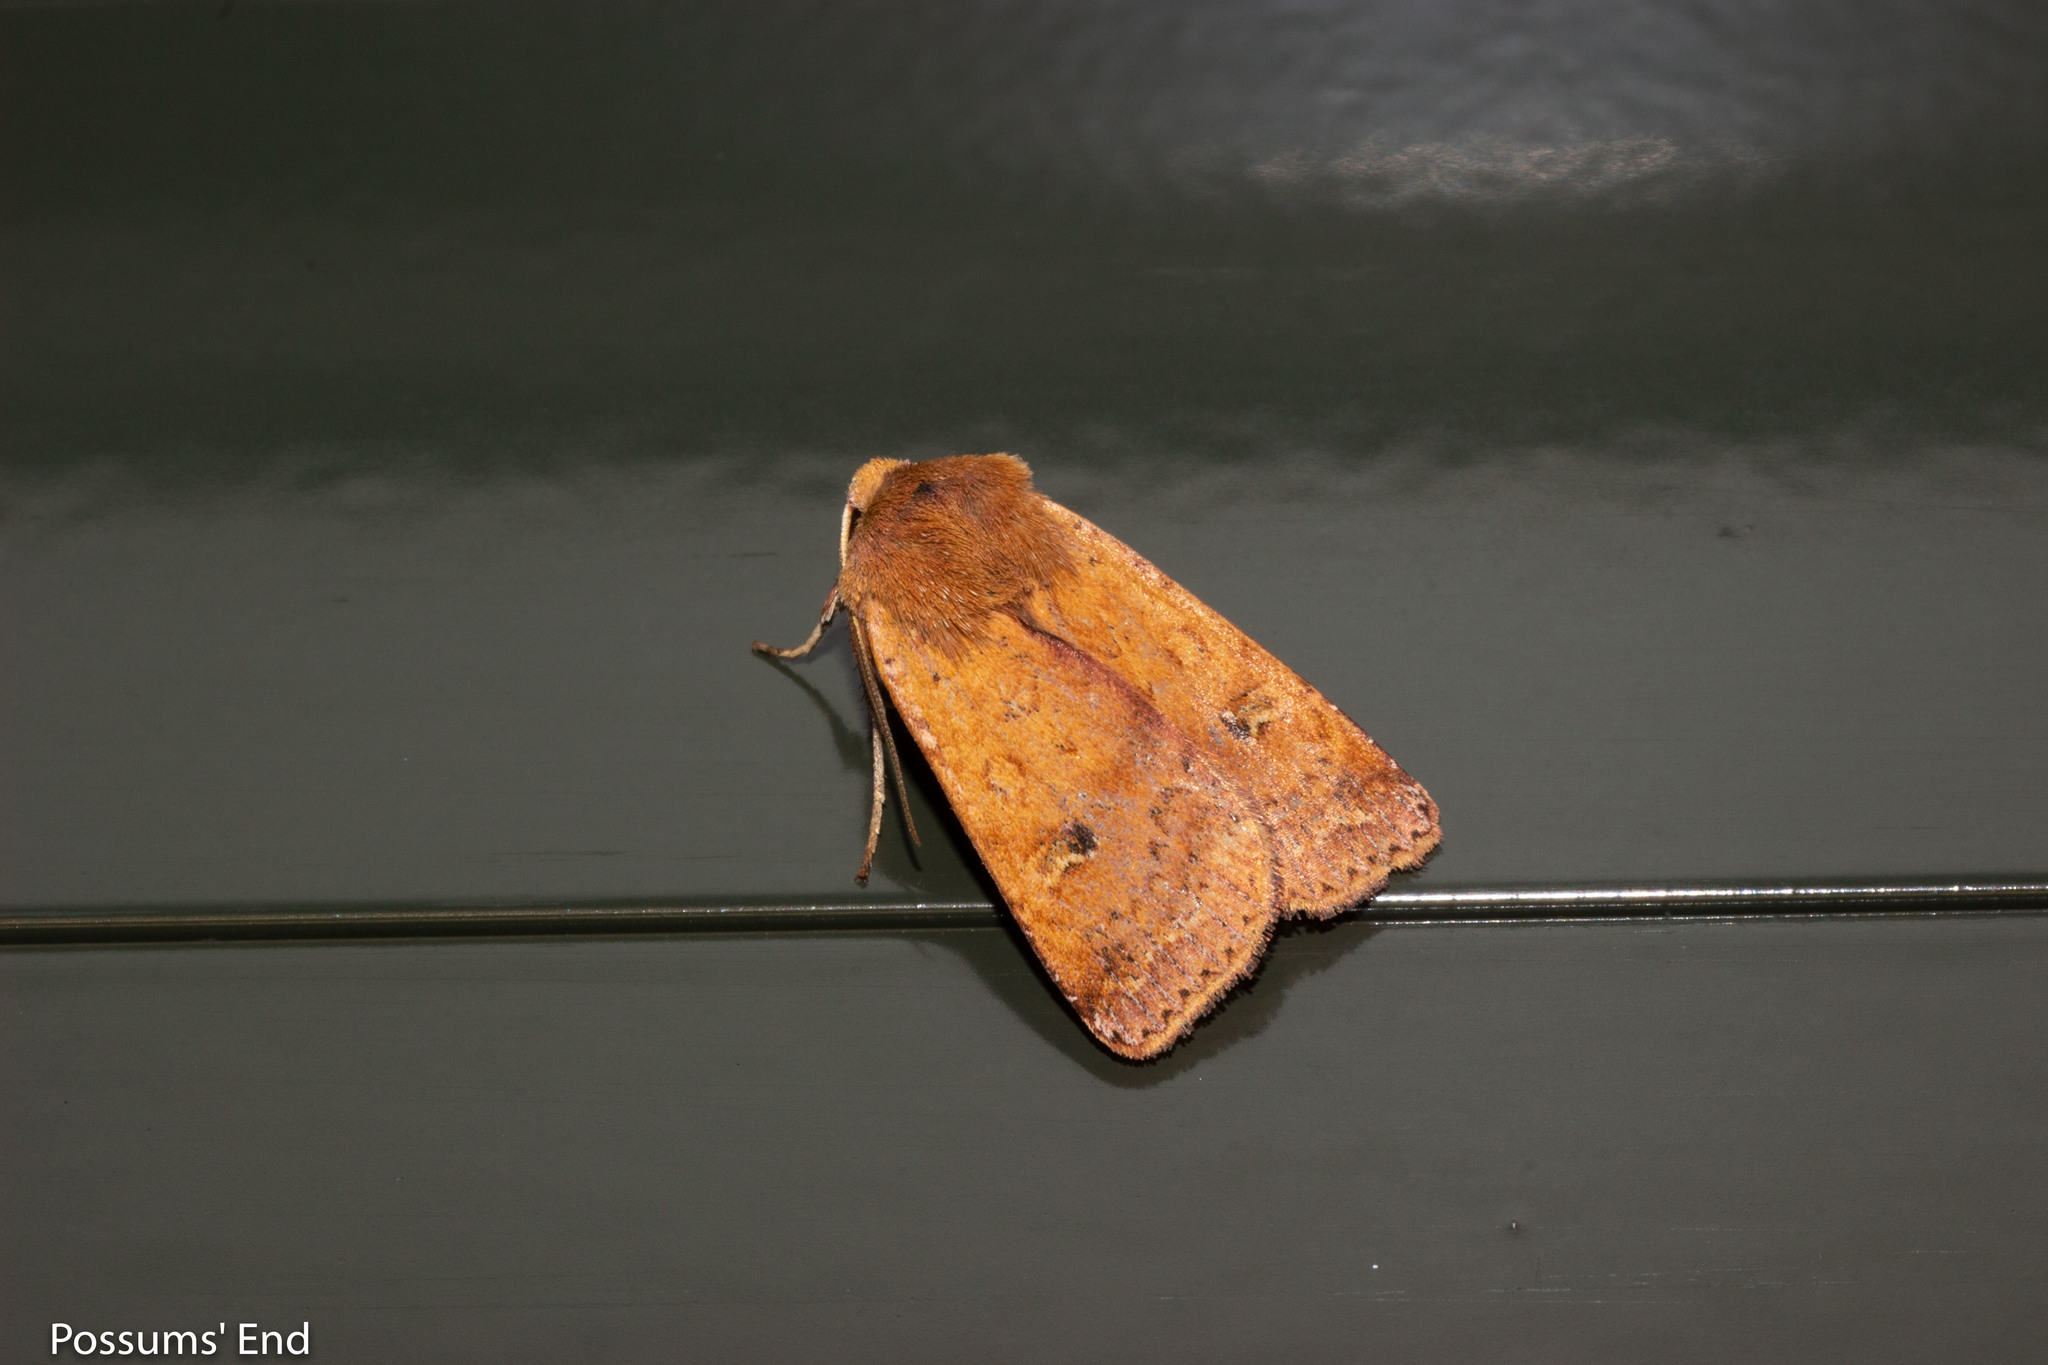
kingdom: Animalia
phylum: Arthropoda
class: Insecta
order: Lepidoptera
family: Noctuidae
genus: Diarsia
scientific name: Diarsia intermixta
